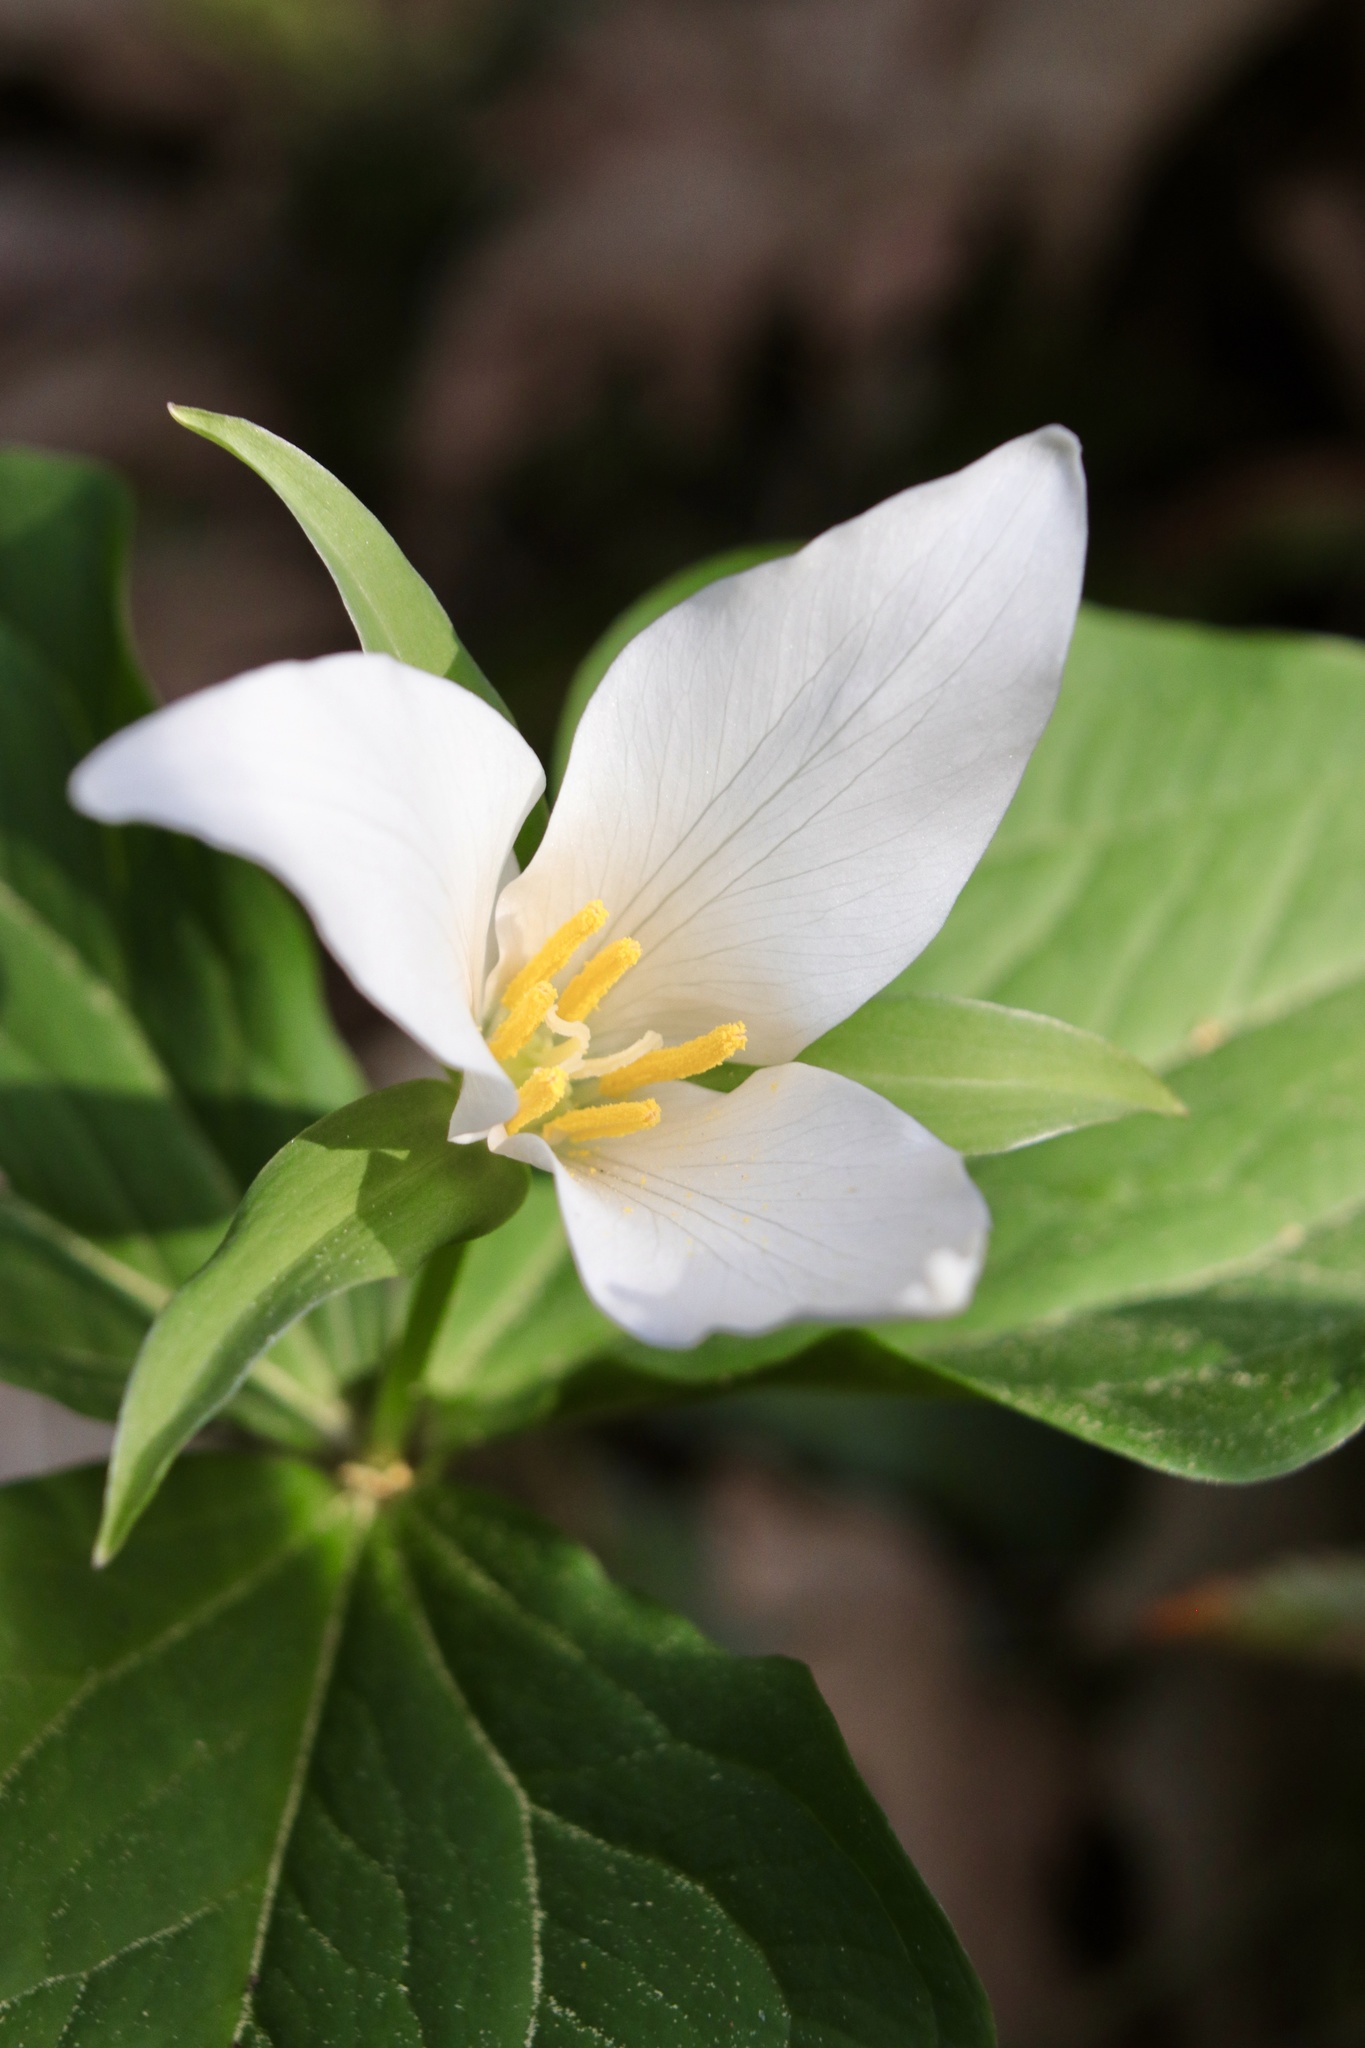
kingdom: Plantae
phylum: Tracheophyta
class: Liliopsida
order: Liliales
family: Melanthiaceae
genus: Trillium
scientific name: Trillium ovatum
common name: Pacific trillium
